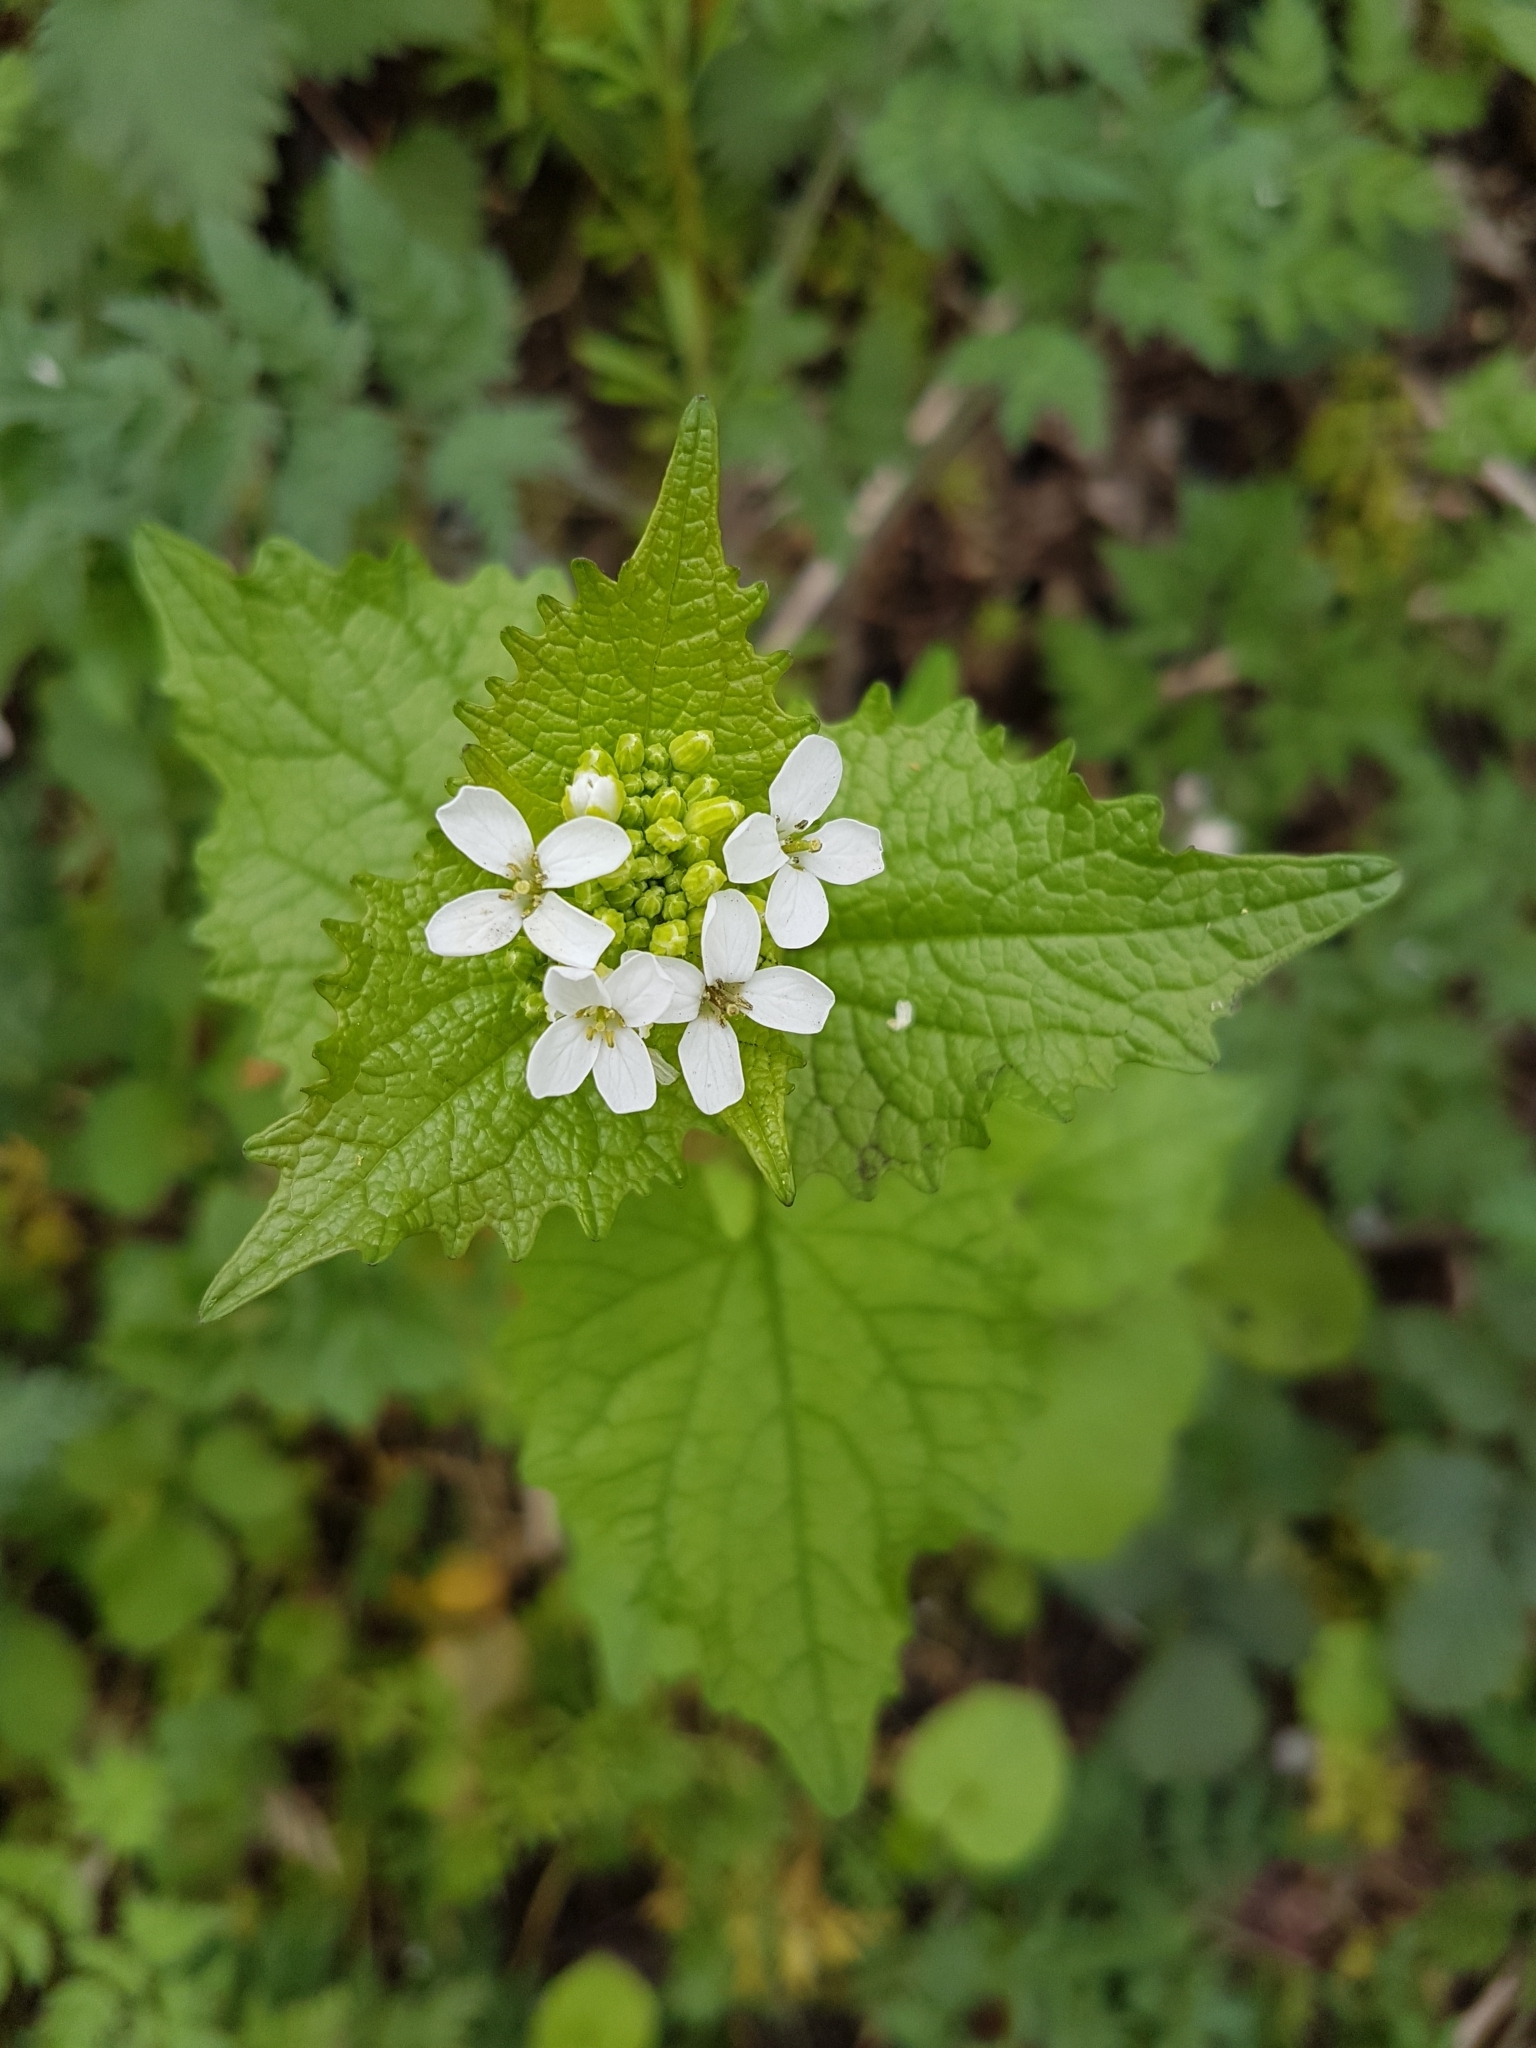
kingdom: Plantae
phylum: Tracheophyta
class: Magnoliopsida
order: Brassicales
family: Brassicaceae
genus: Alliaria
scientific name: Alliaria petiolata
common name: Garlic mustard
